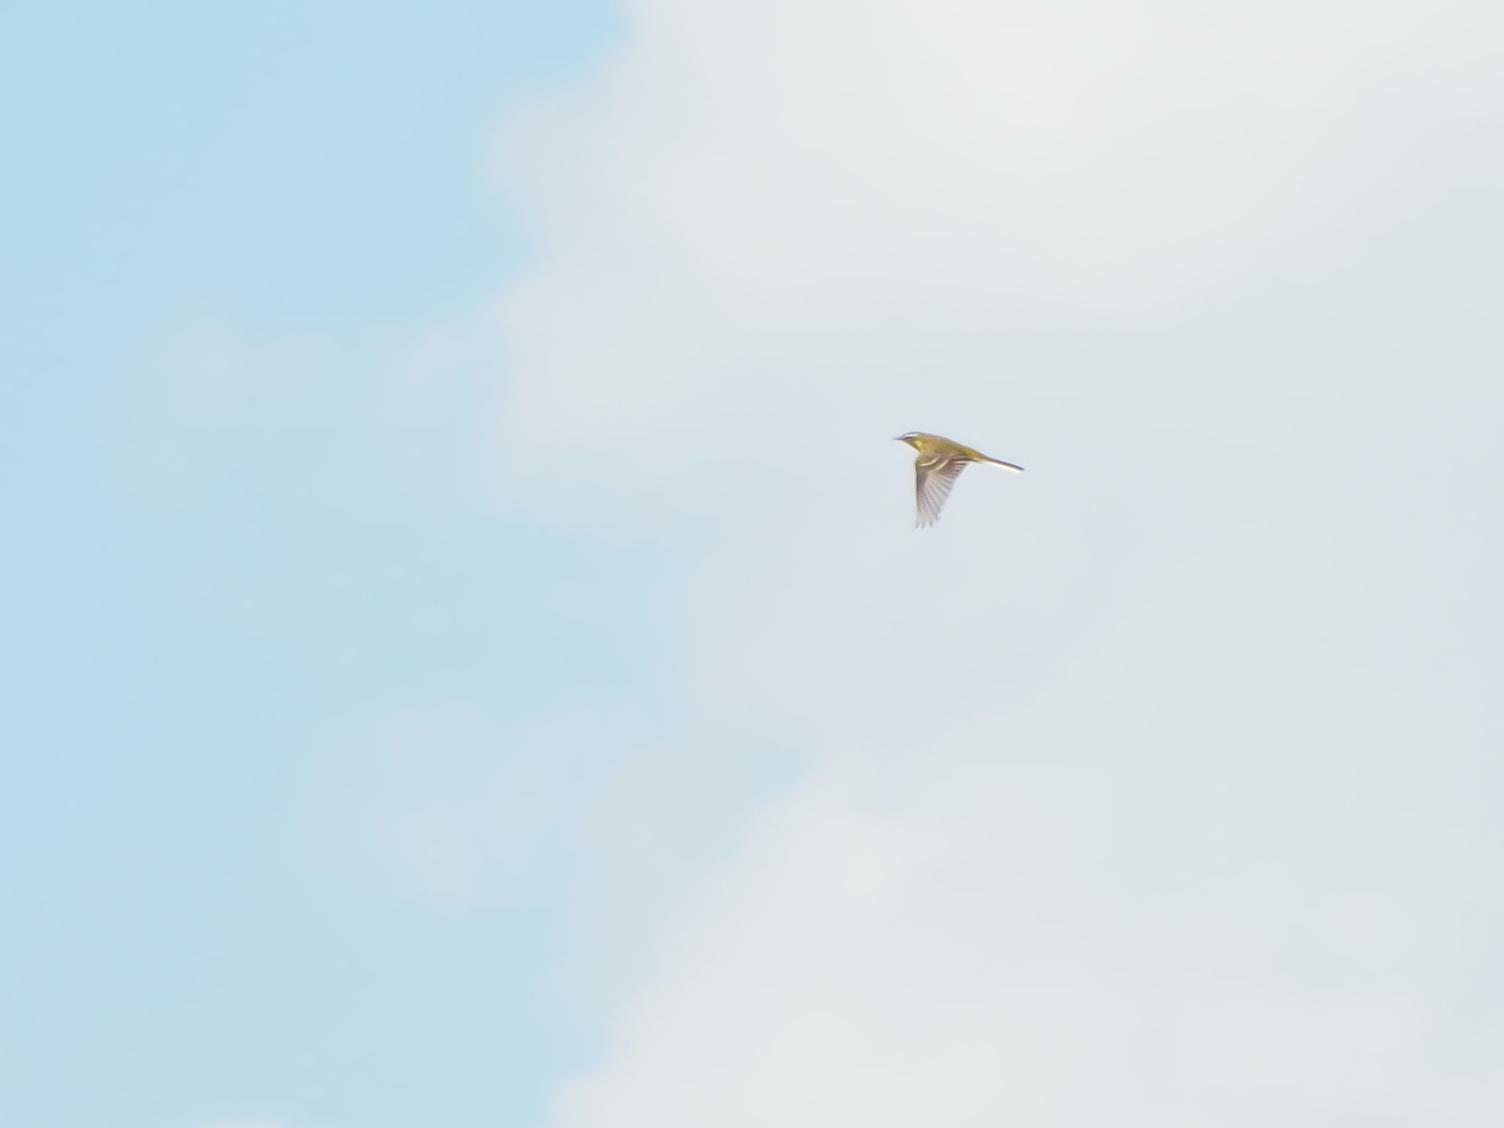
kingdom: Animalia
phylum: Chordata
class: Aves
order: Passeriformes
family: Motacillidae
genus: Motacilla
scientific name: Motacilla flava
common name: Western yellow wagtail
